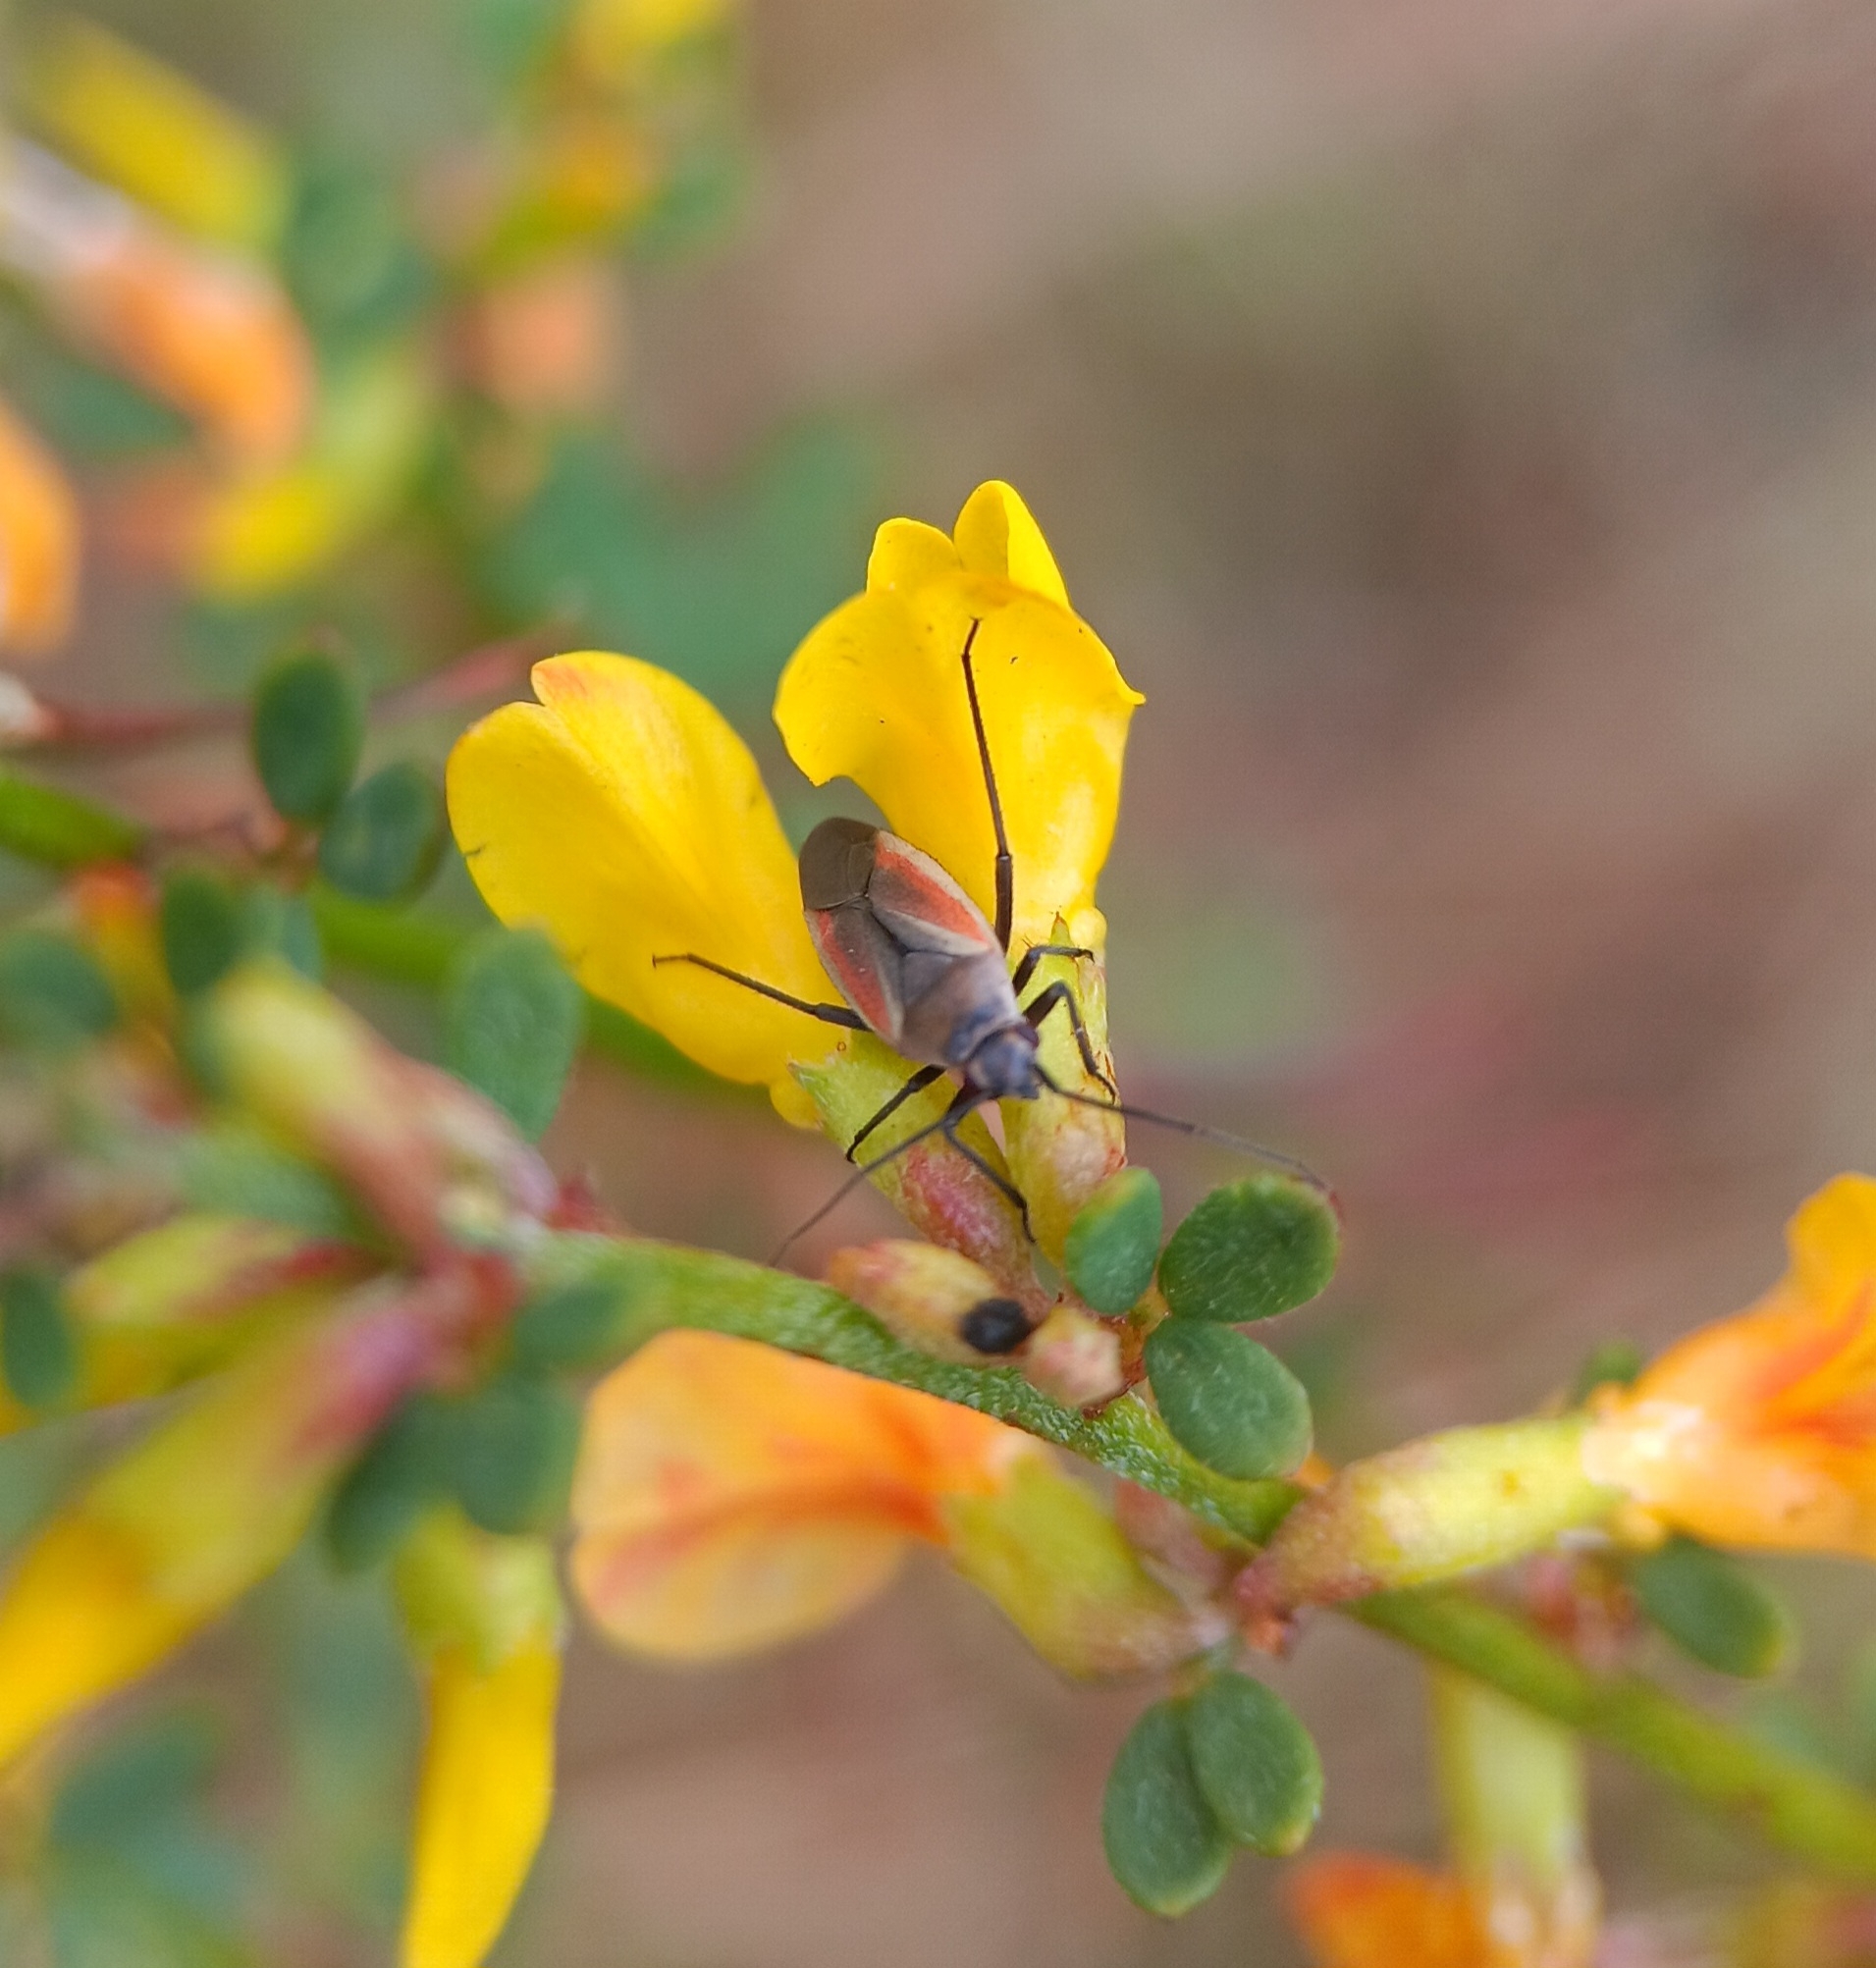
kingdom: Animalia
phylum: Arthropoda
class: Insecta
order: Hemiptera
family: Miridae
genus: Lopidea
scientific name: Lopidea marginata
